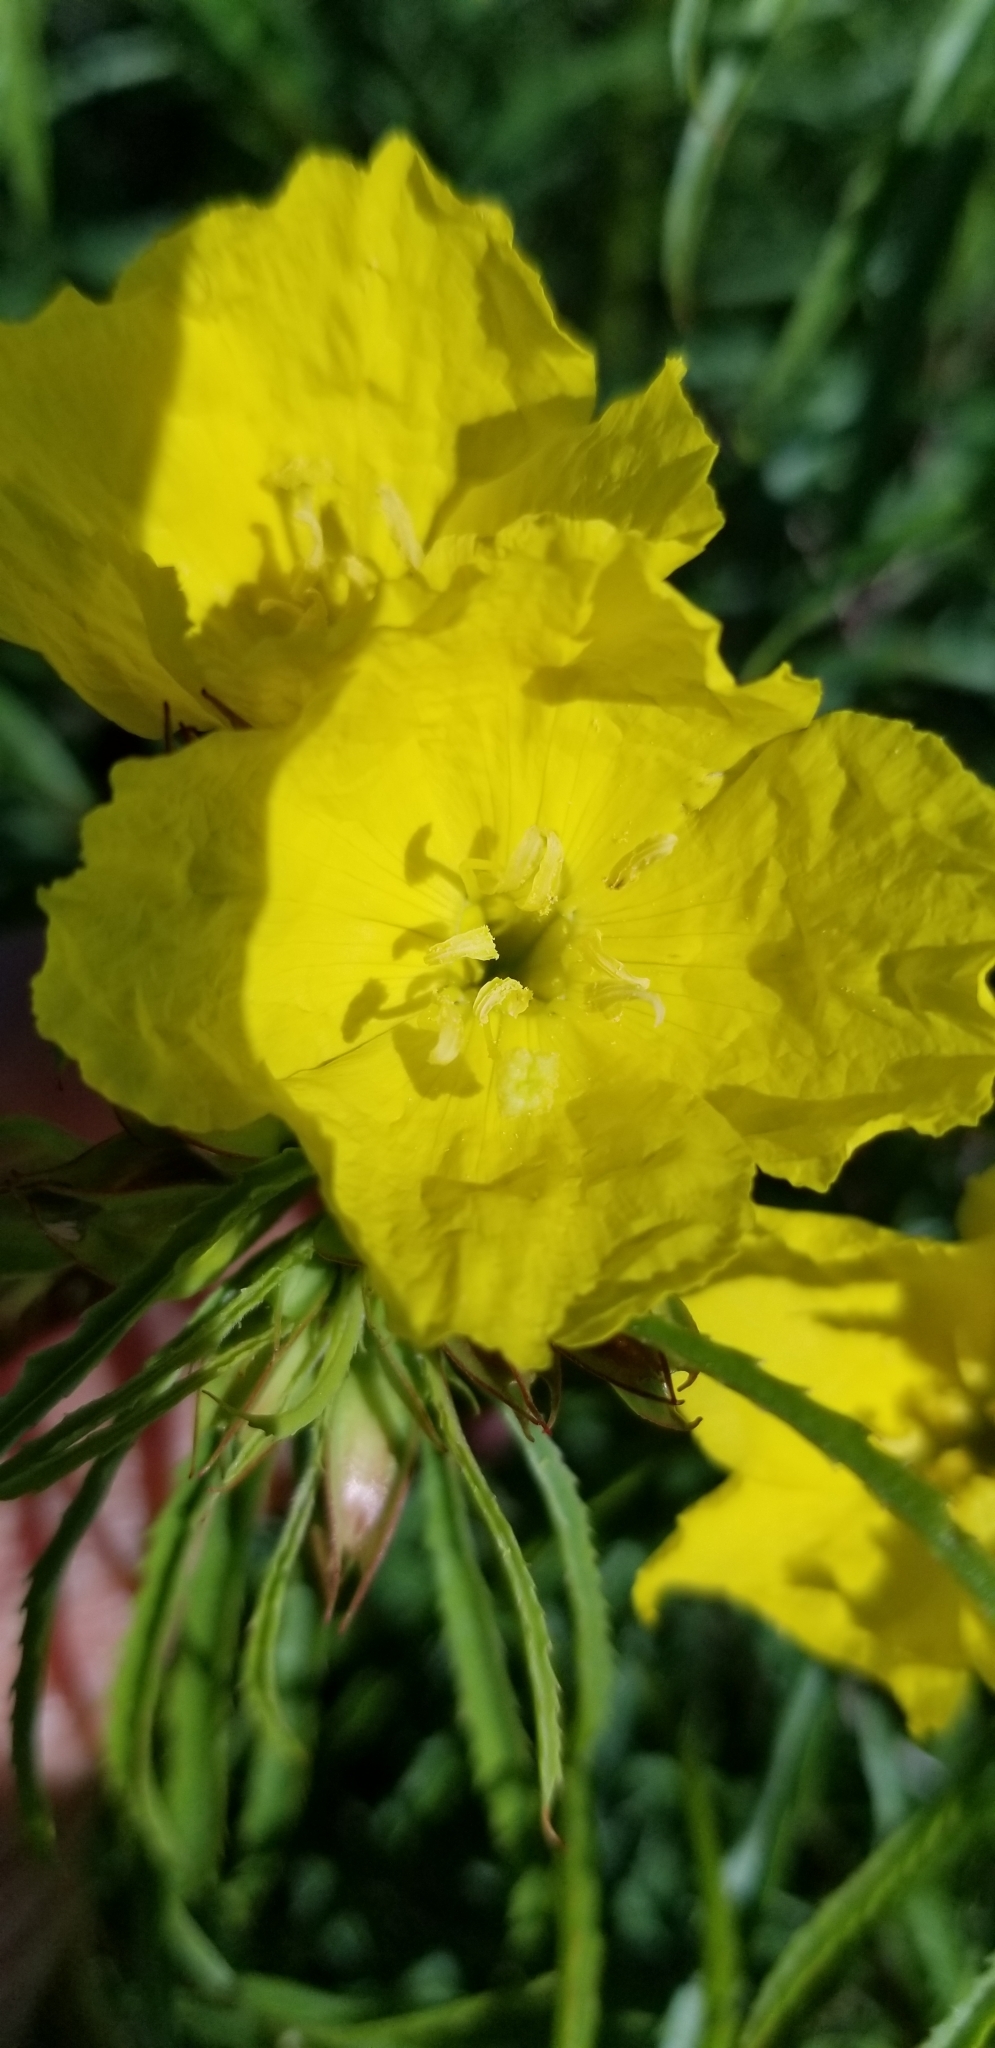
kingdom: Plantae
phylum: Tracheophyta
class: Magnoliopsida
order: Myrtales
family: Onagraceae
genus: Oenothera
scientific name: Oenothera
